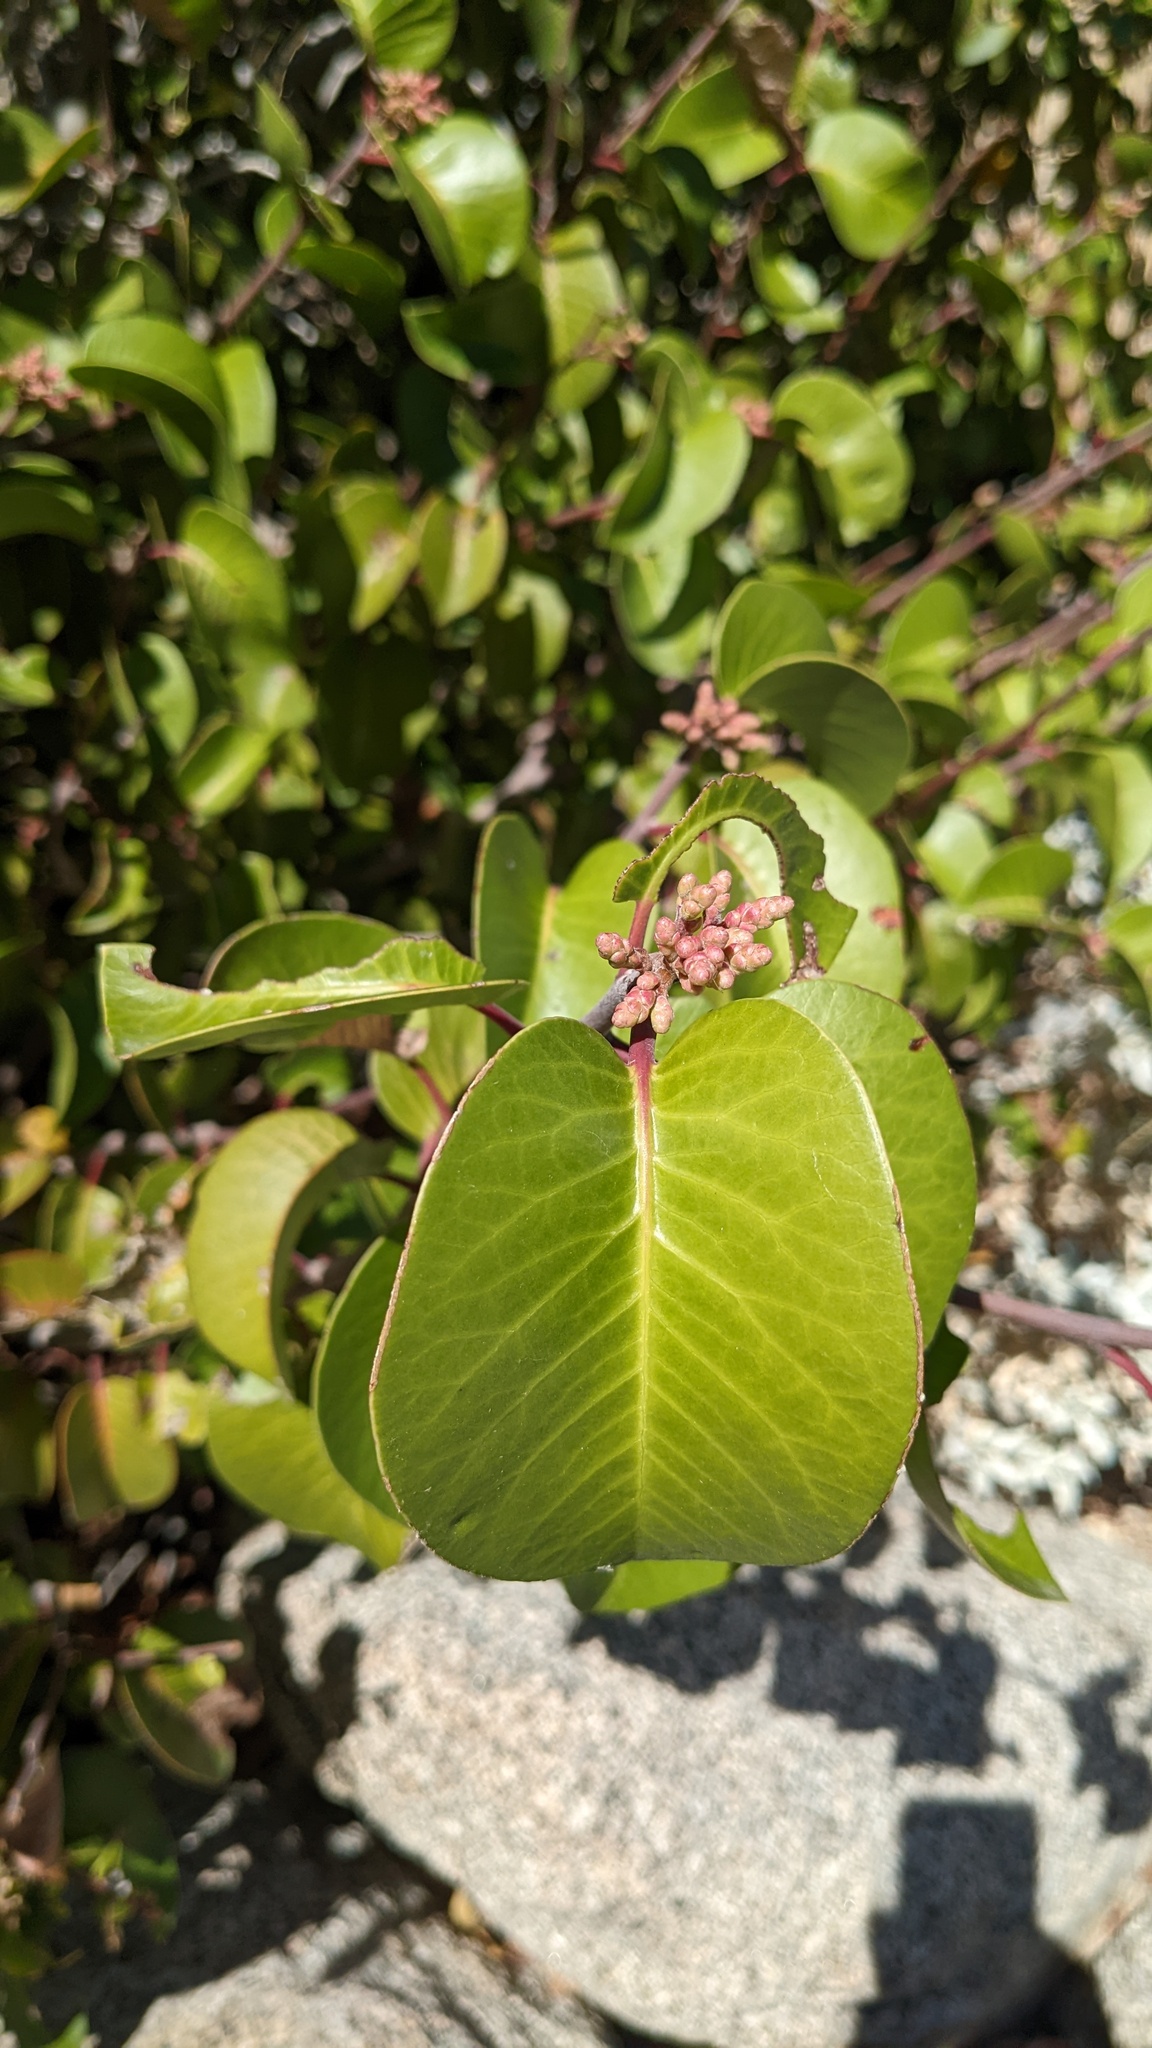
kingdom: Plantae
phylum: Tracheophyta
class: Magnoliopsida
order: Sapindales
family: Anacardiaceae
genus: Rhus
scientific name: Rhus ovata
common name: Sugar sumac
